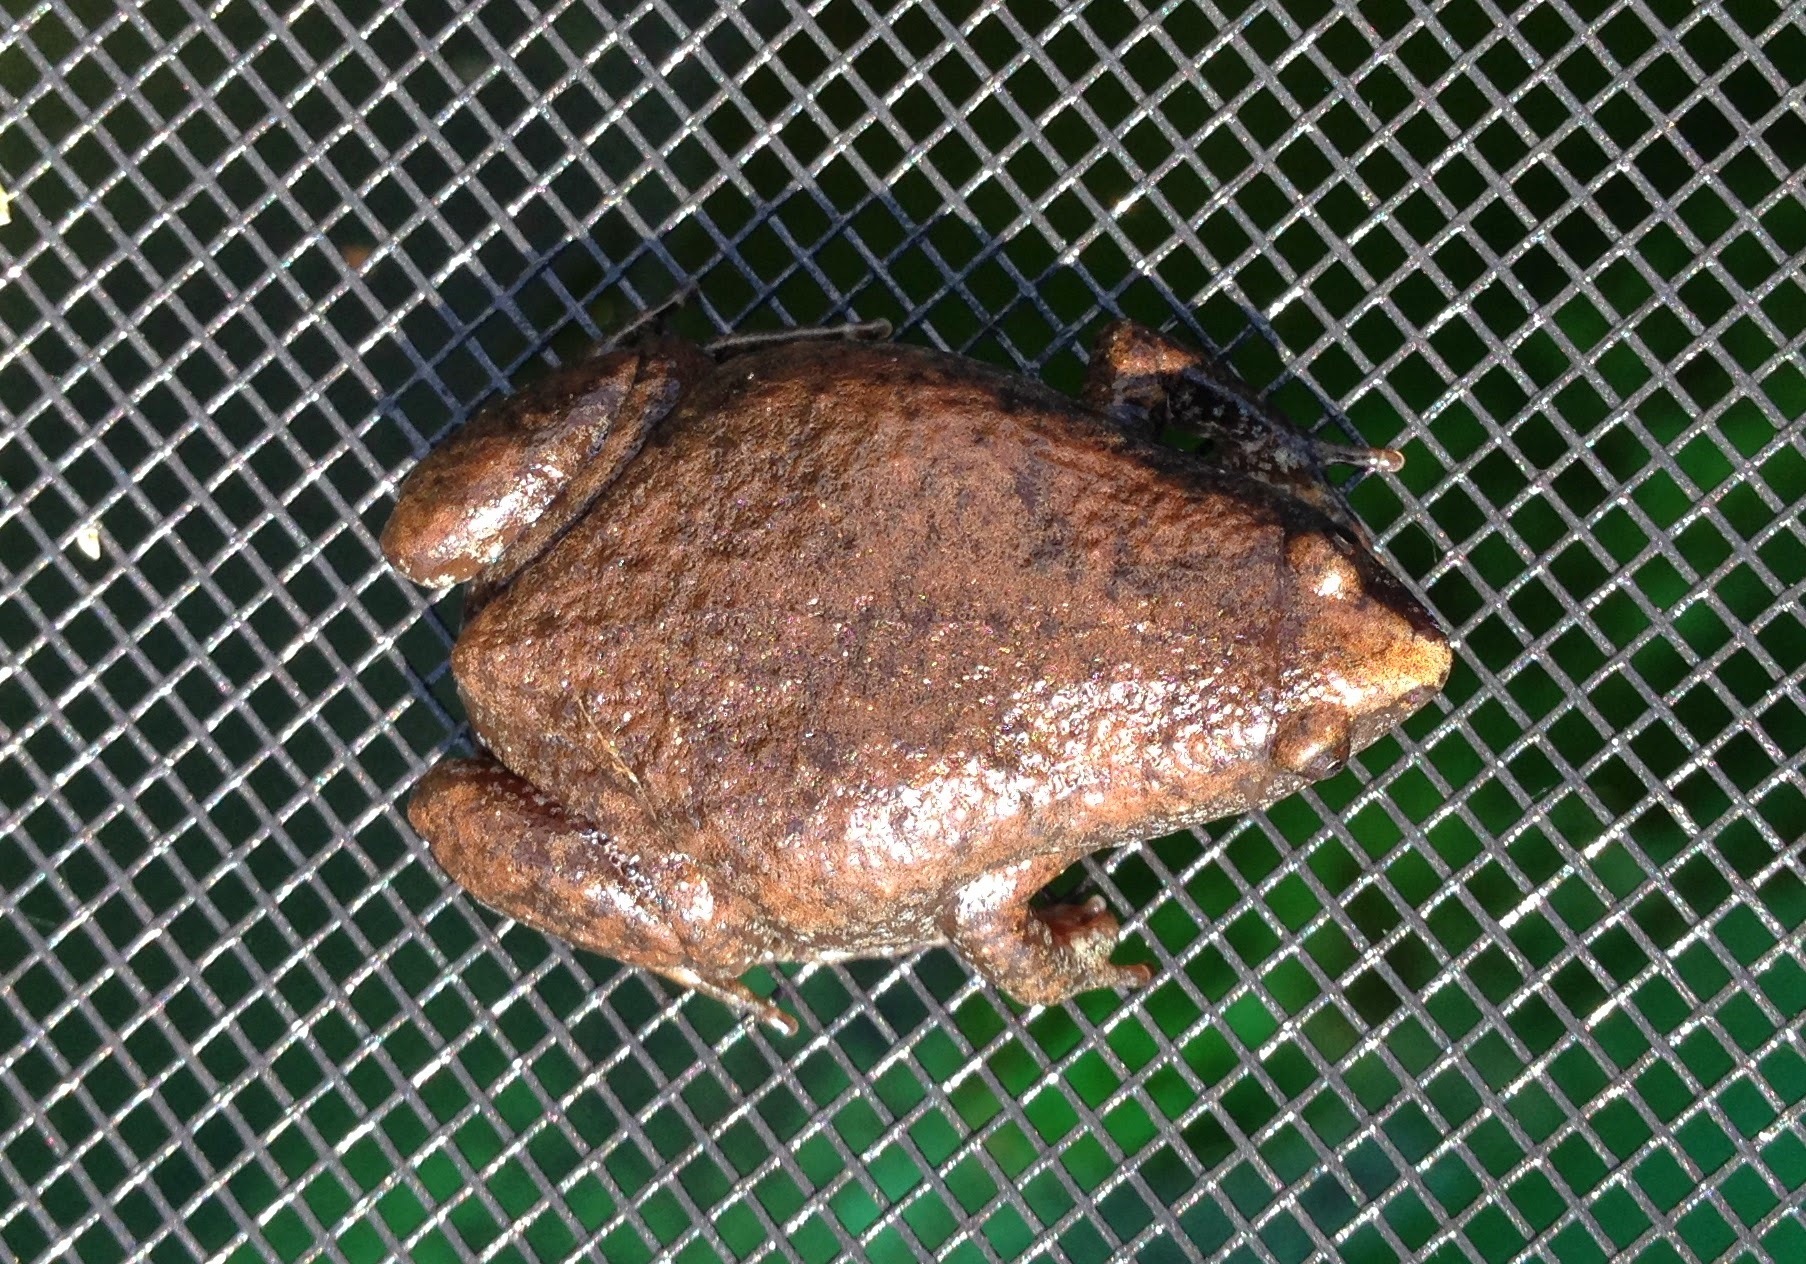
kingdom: Animalia
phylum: Chordata
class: Amphibia
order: Anura
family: Microhylidae
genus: Gastrophryne
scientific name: Gastrophryne carolinensis
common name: Eastern narrowmouth toad
